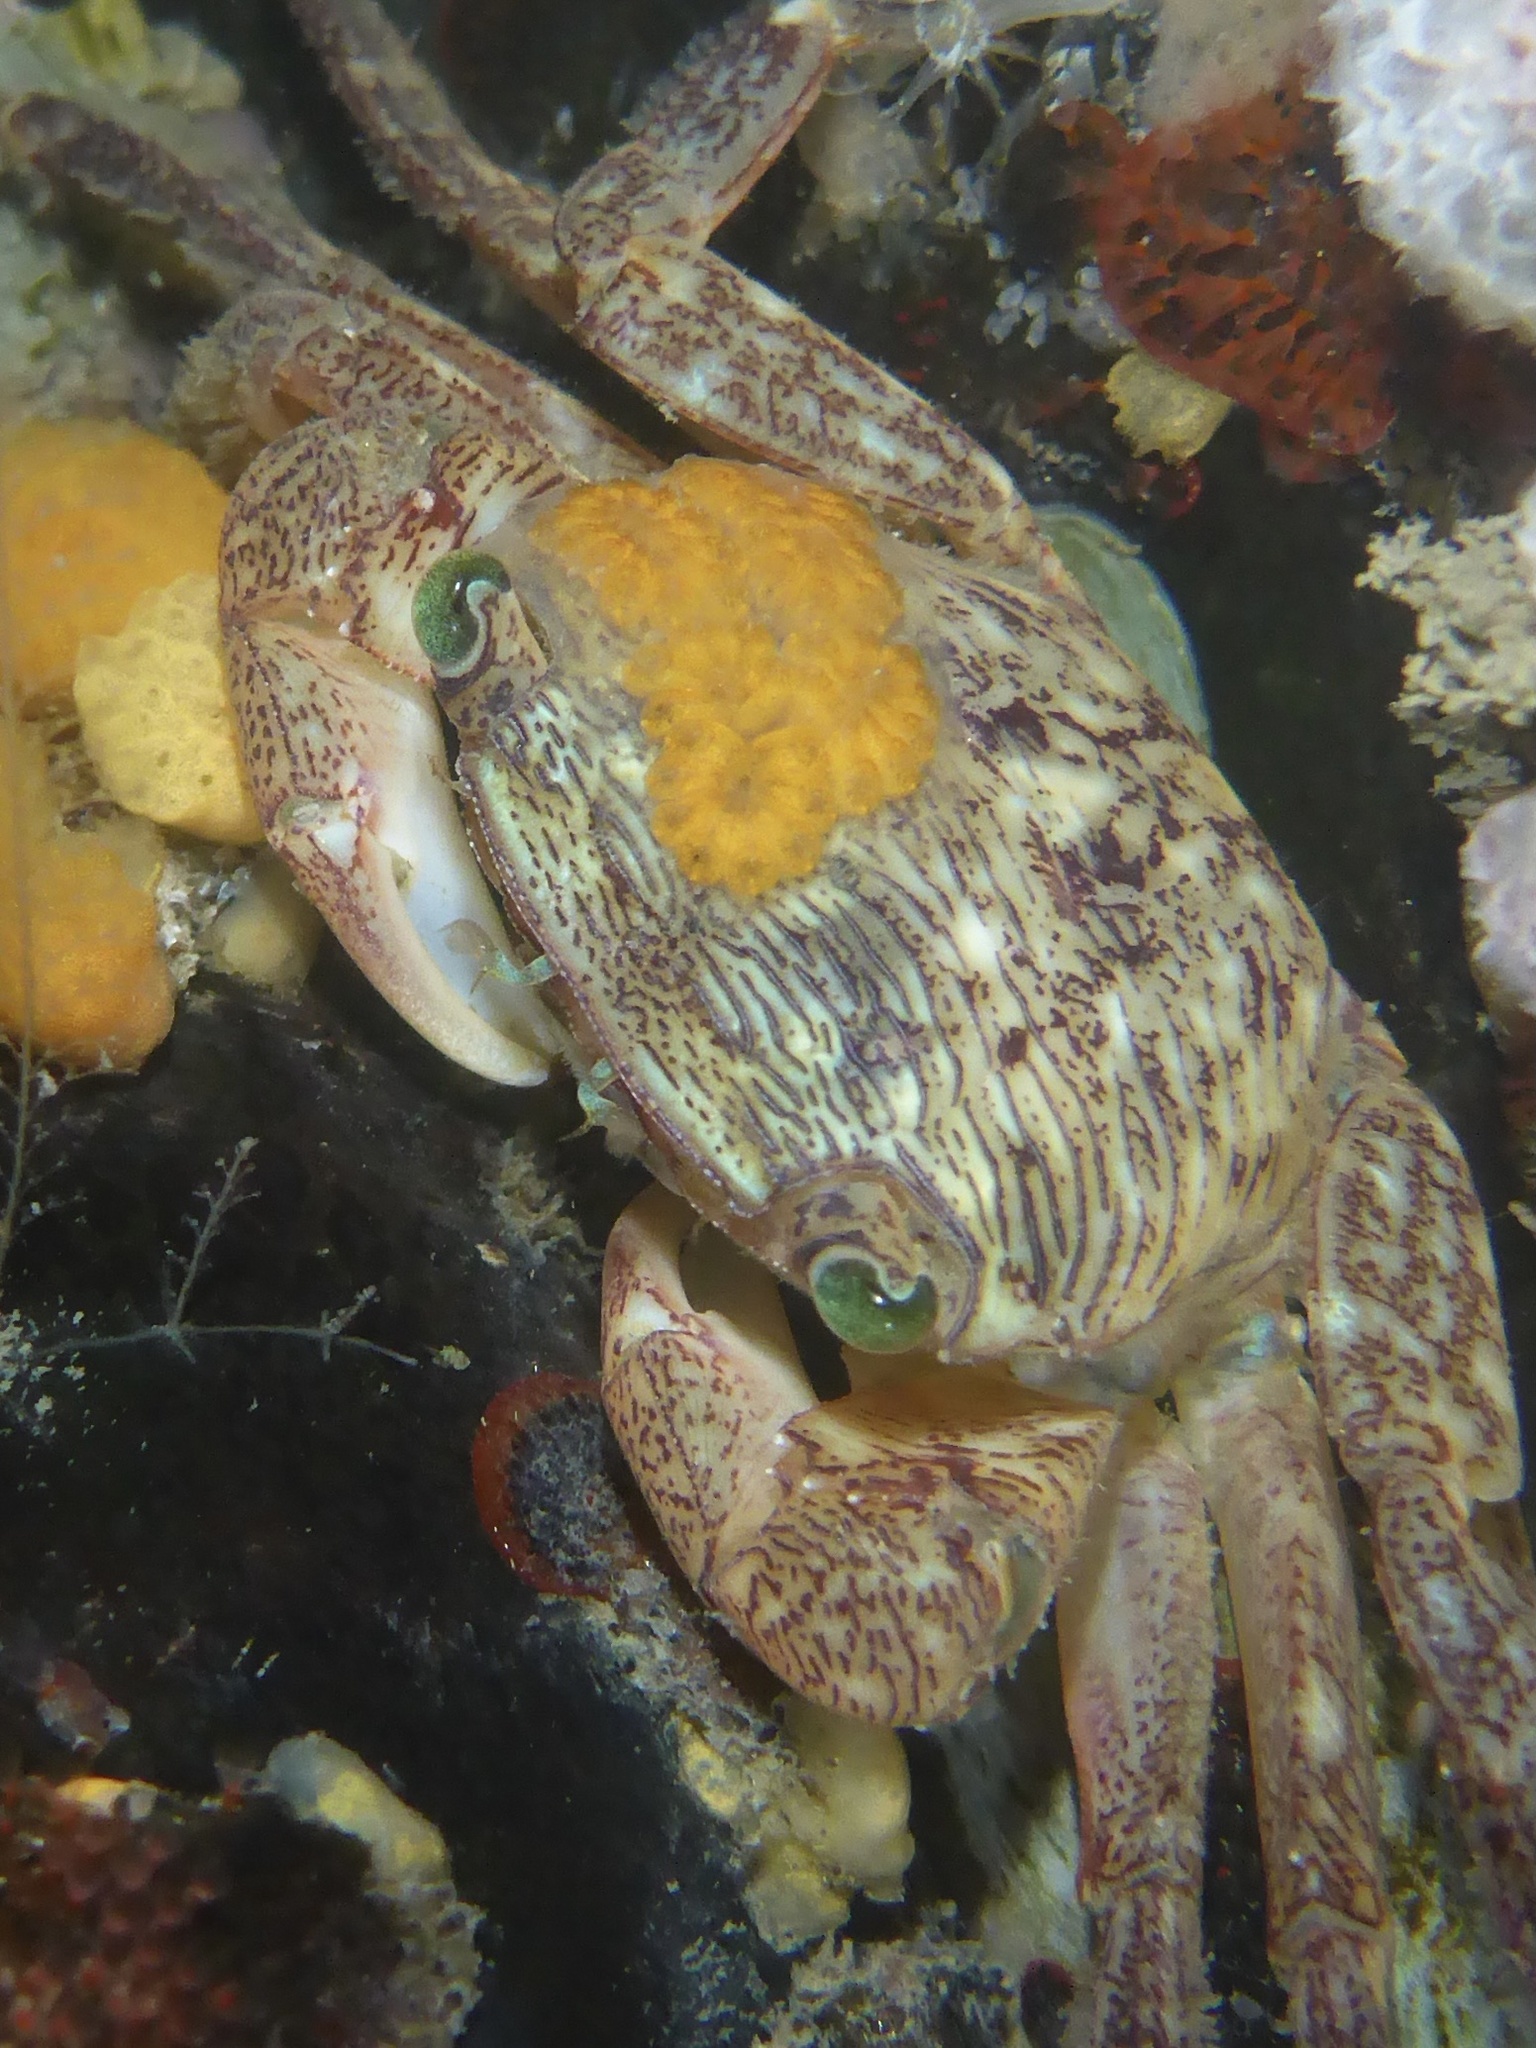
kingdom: Animalia
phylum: Arthropoda
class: Malacostraca
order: Decapoda
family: Grapsidae
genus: Pachygrapsus
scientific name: Pachygrapsus crassipes
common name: Striped shore crab
